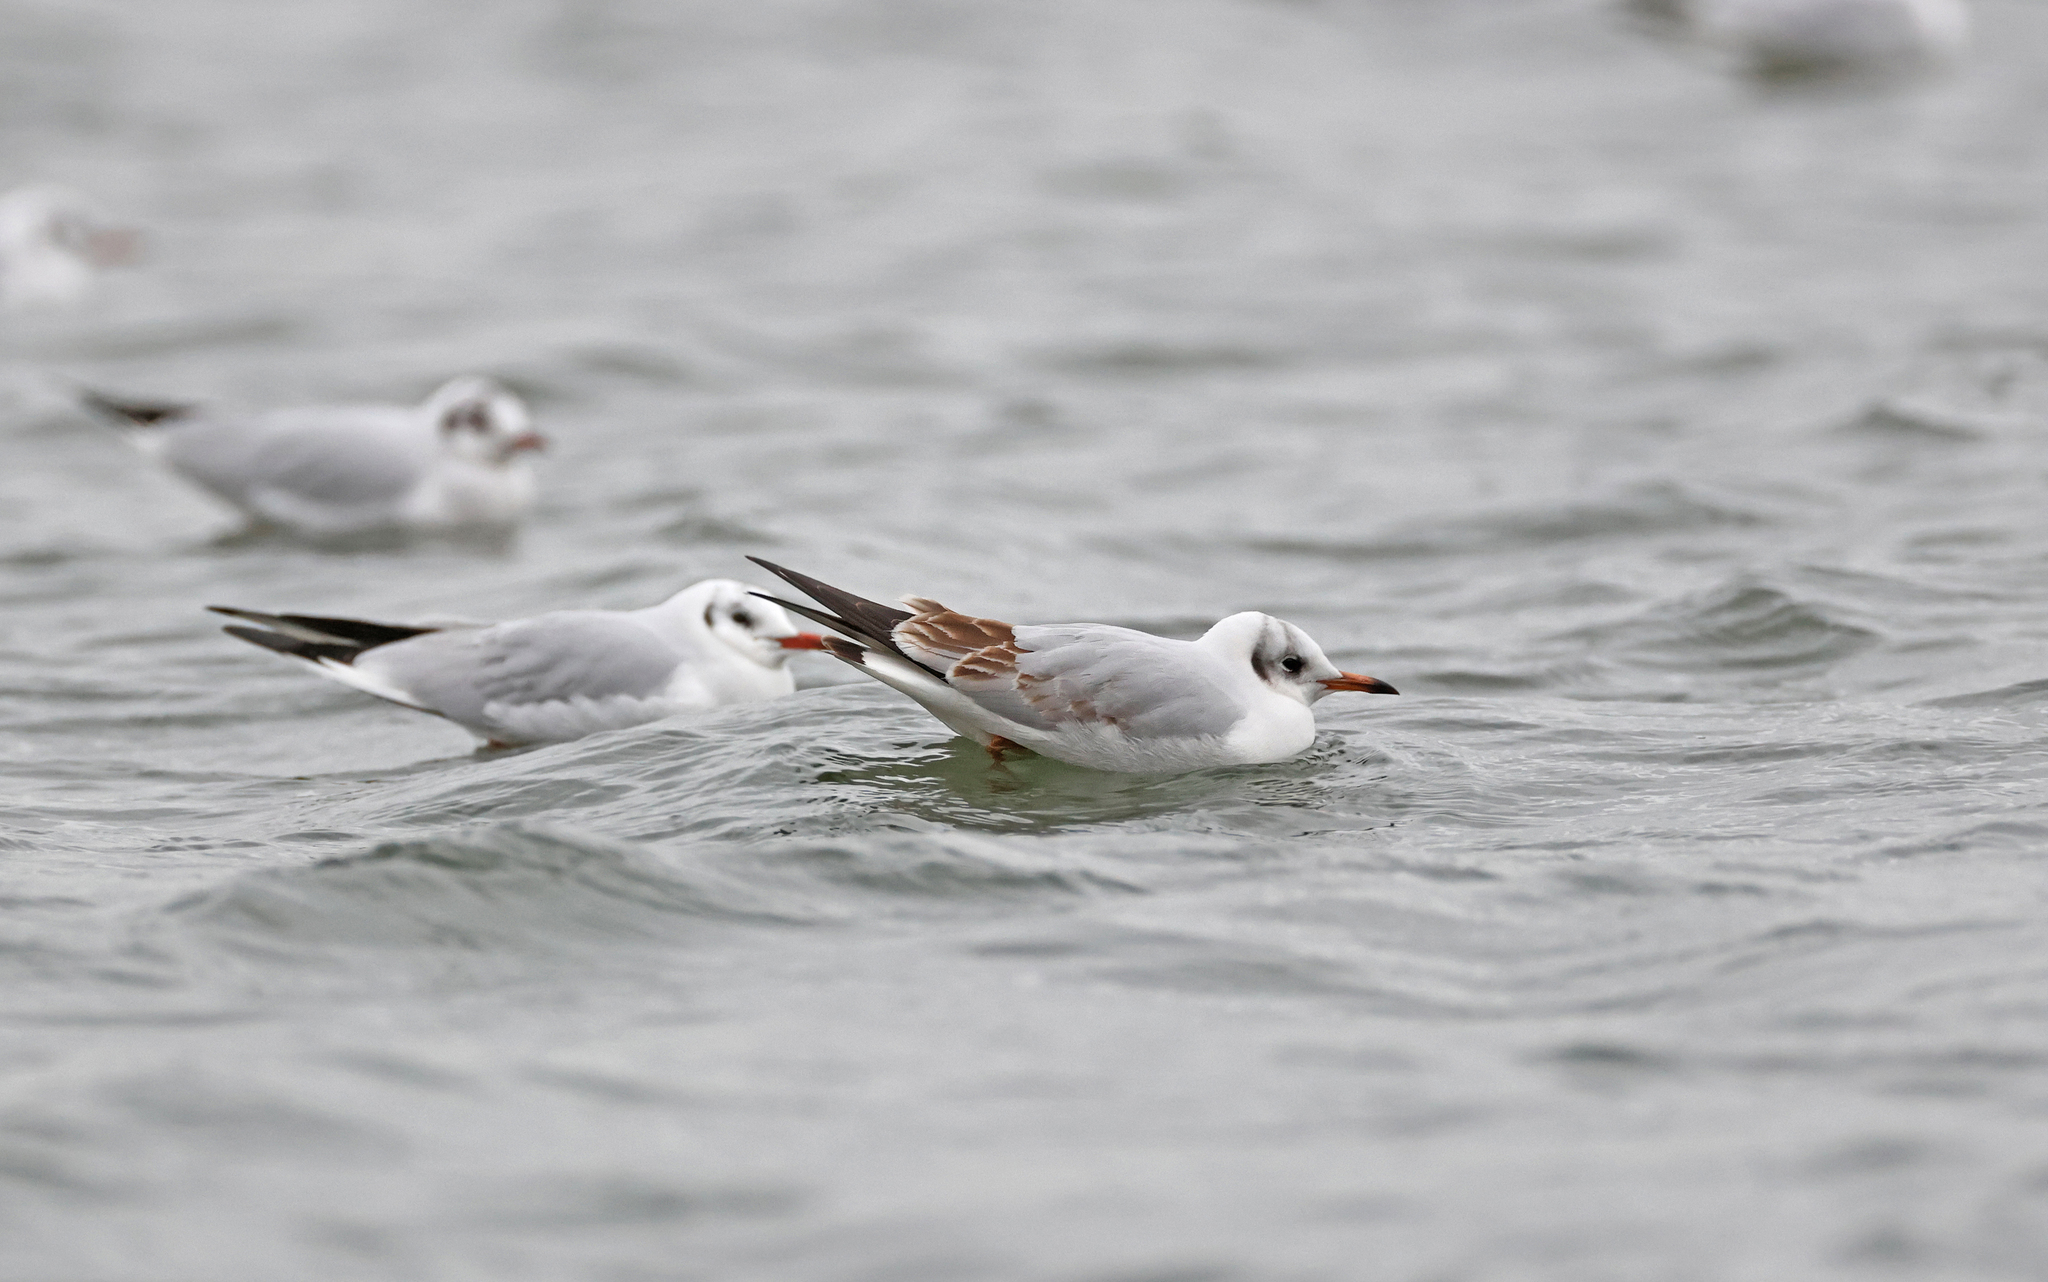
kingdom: Animalia
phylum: Chordata
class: Aves
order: Charadriiformes
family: Laridae
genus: Chroicocephalus
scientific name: Chroicocephalus ridibundus
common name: Black-headed gull
